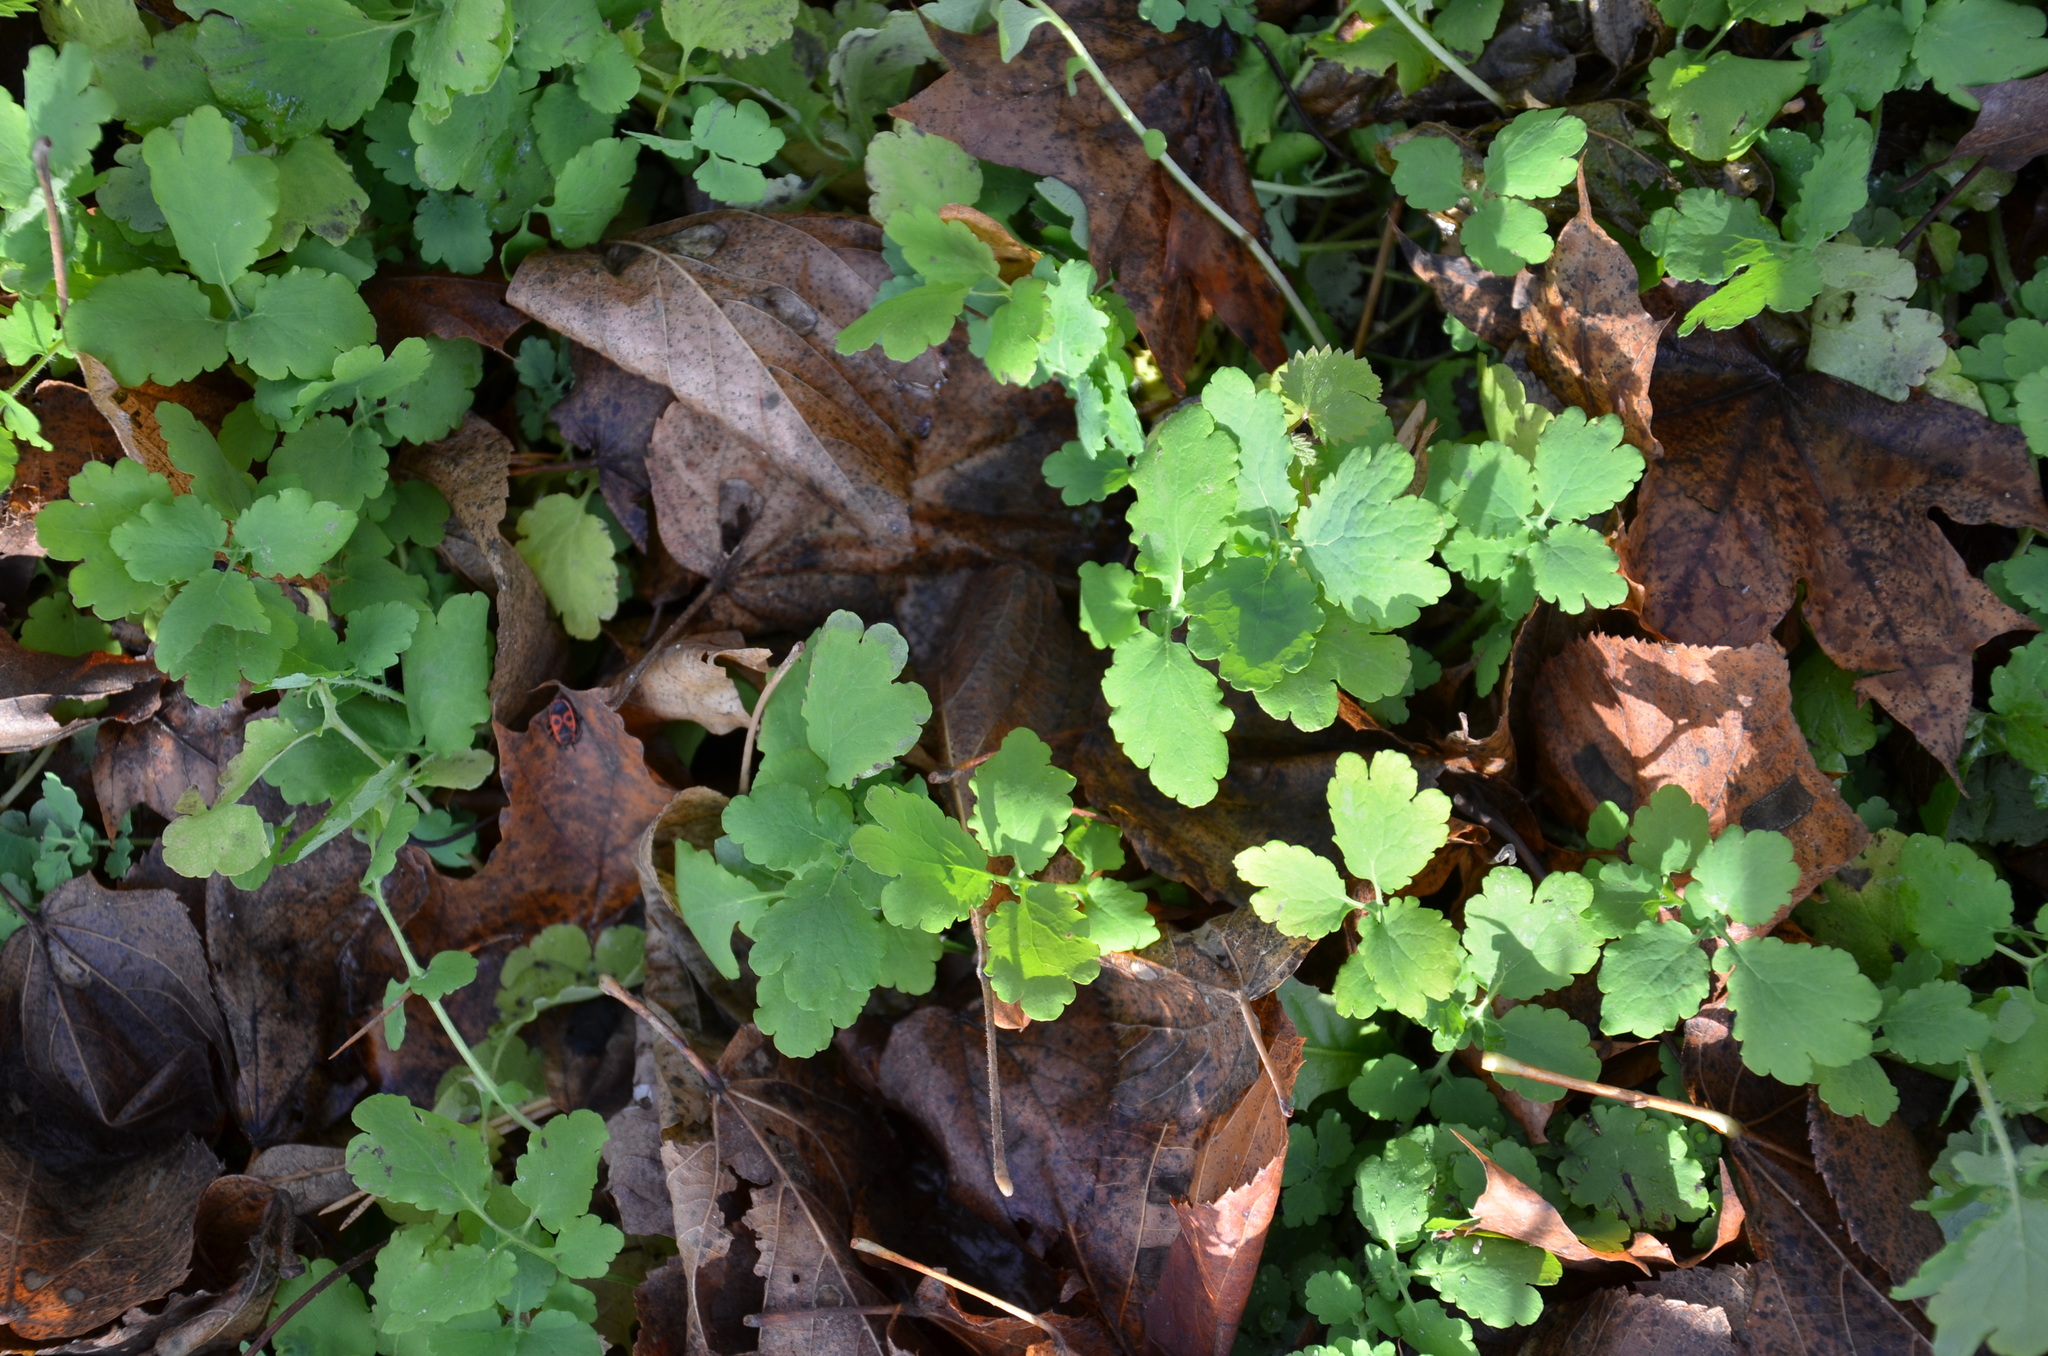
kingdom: Plantae
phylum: Tracheophyta
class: Magnoliopsida
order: Ranunculales
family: Papaveraceae
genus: Chelidonium
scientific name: Chelidonium majus
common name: Greater celandine
